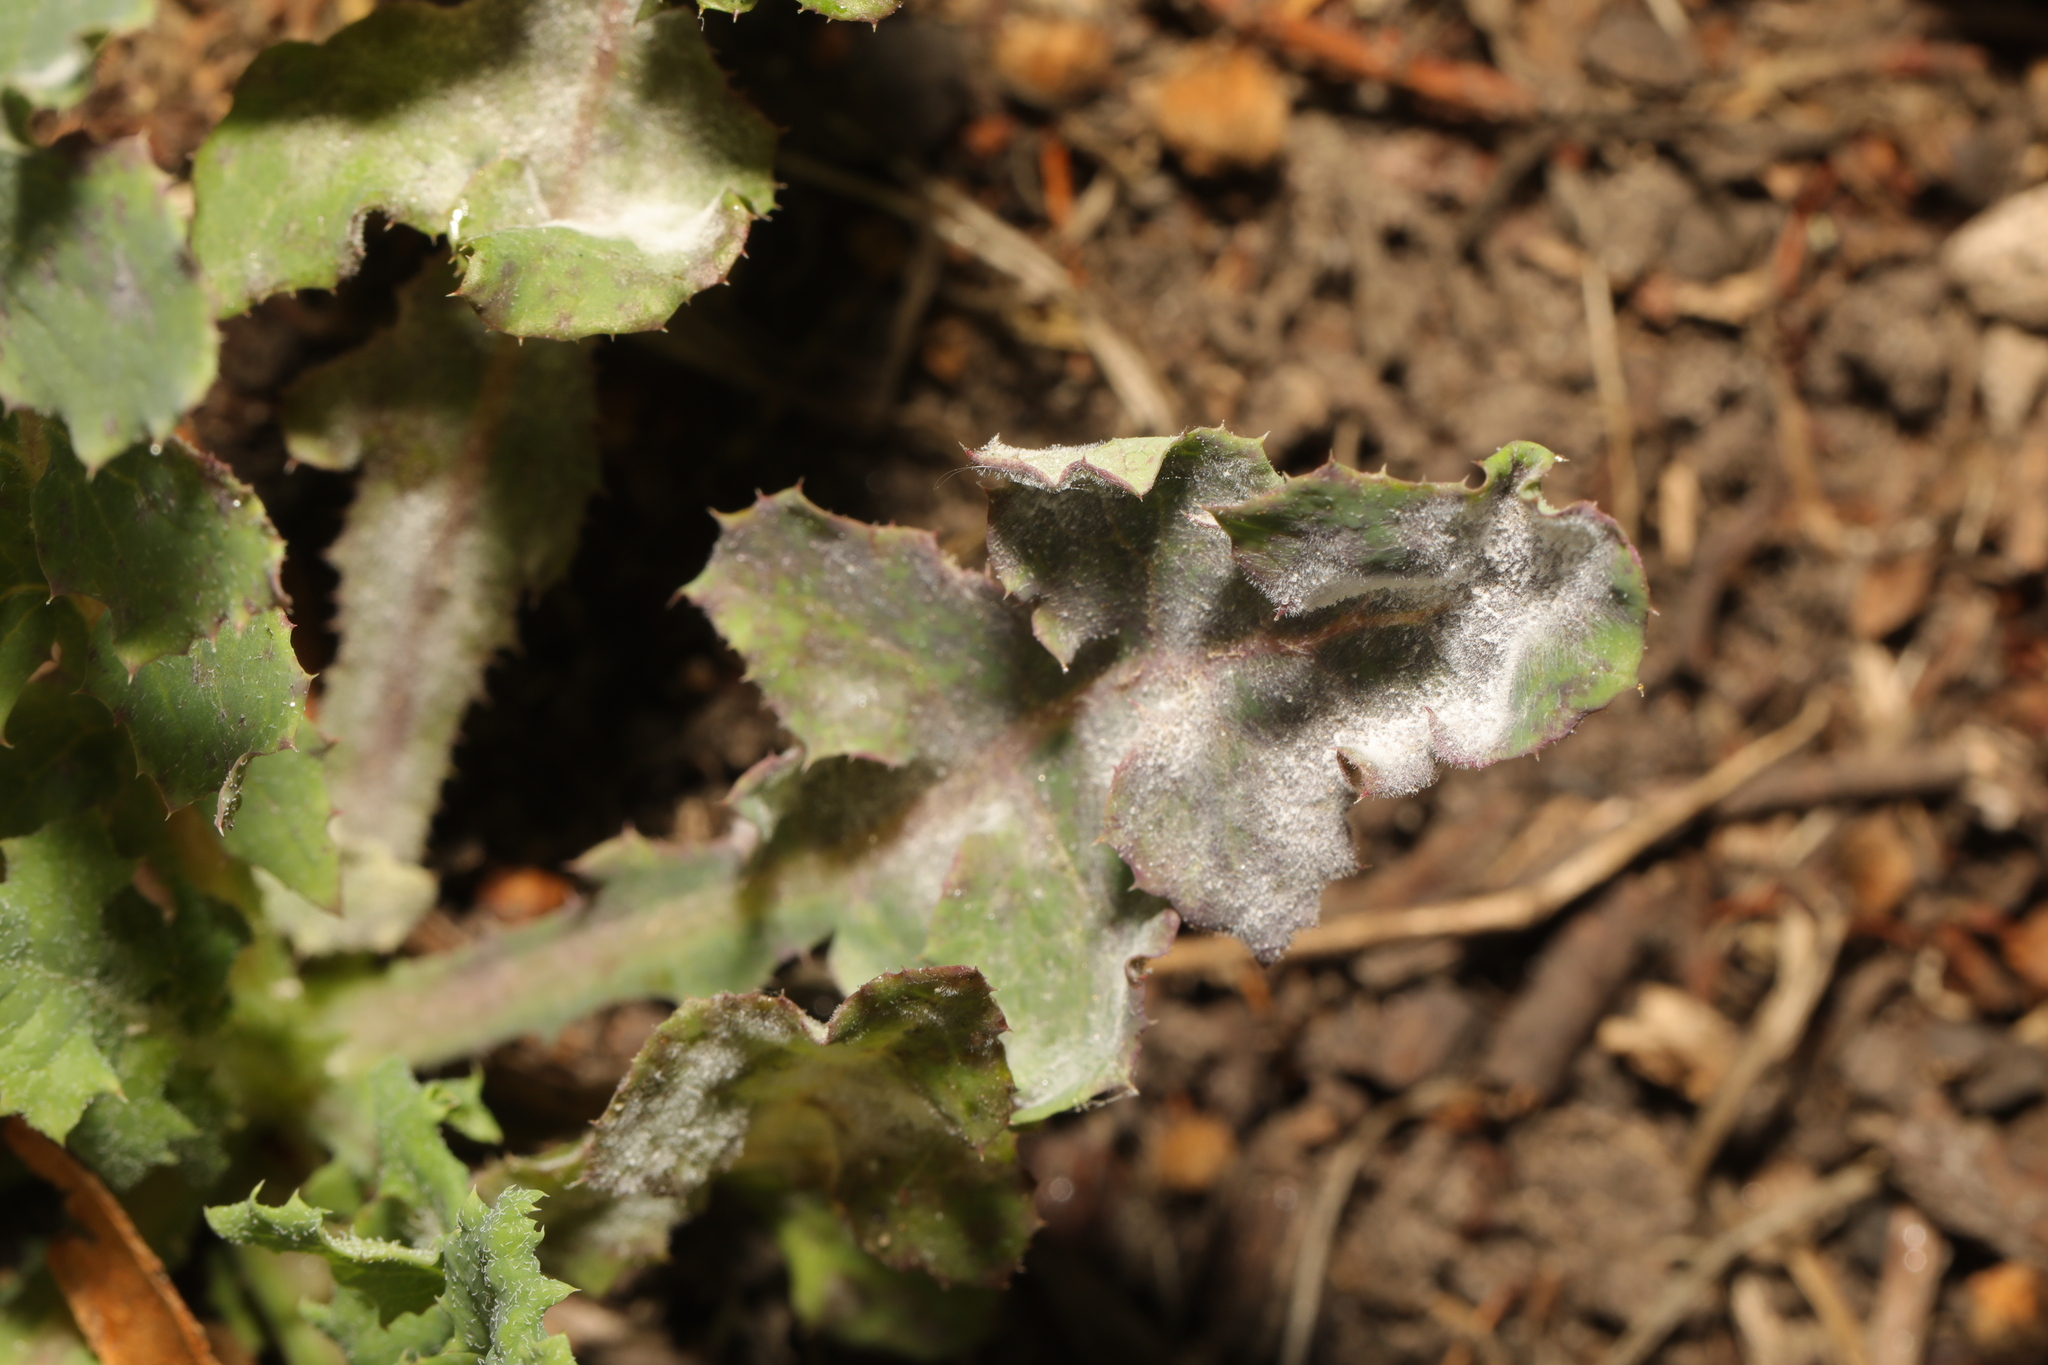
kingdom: Fungi
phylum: Ascomycota
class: Leotiomycetes
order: Helotiales
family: Erysiphaceae
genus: Golovinomyces
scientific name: Golovinomyces sonchicola
